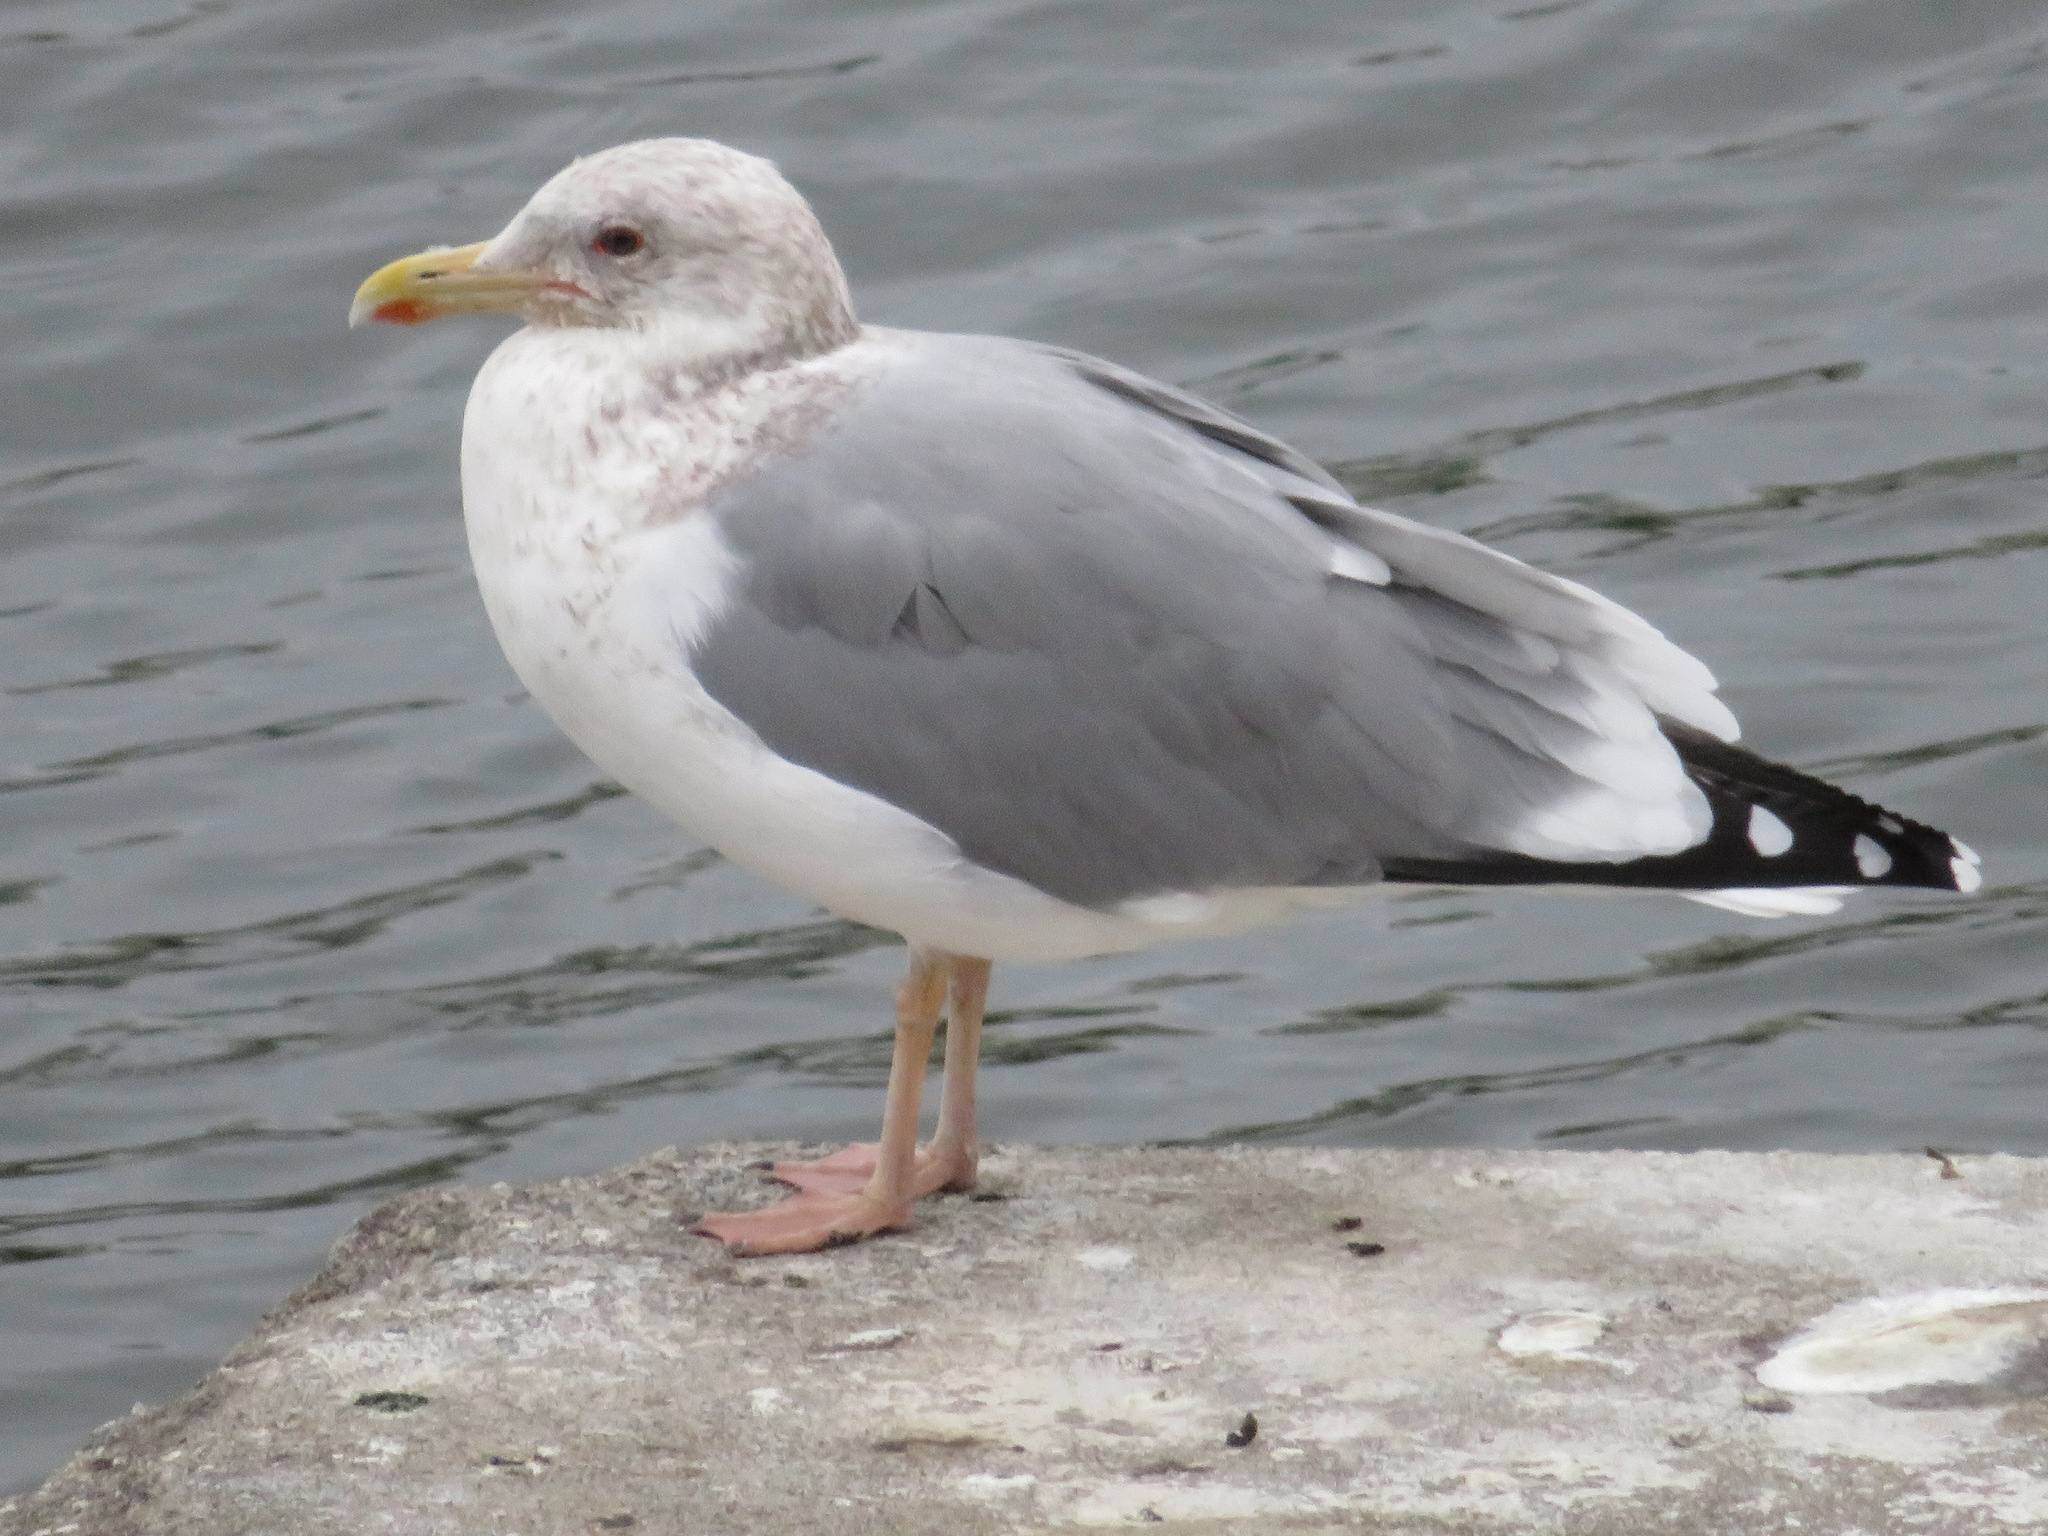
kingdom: Animalia
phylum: Chordata
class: Aves
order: Charadriiformes
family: Laridae
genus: Larus
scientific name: Larus vegae
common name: Vega gull
